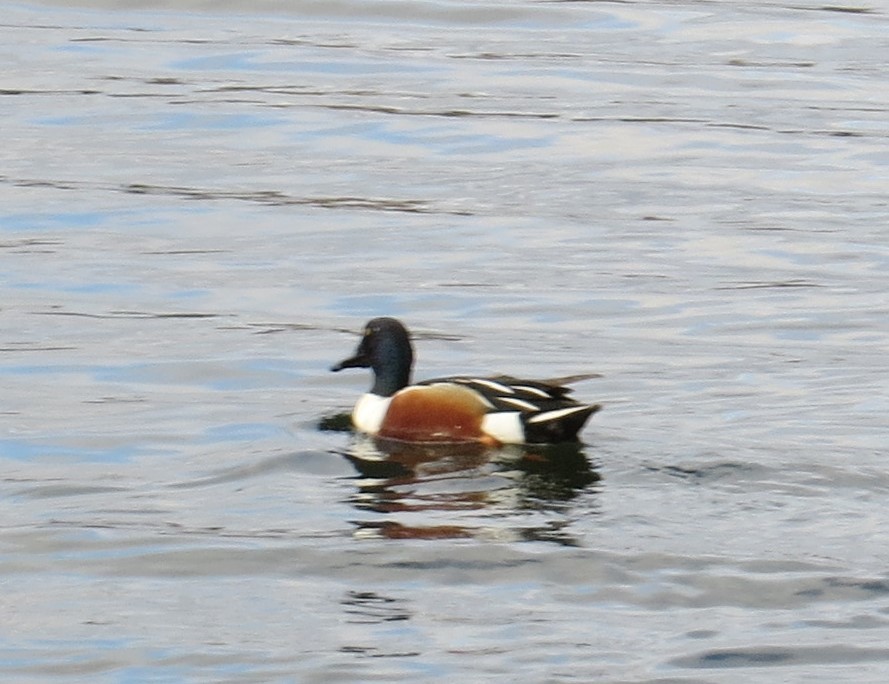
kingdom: Animalia
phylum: Chordata
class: Aves
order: Anseriformes
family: Anatidae
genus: Spatula
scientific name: Spatula clypeata
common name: Northern shoveler
